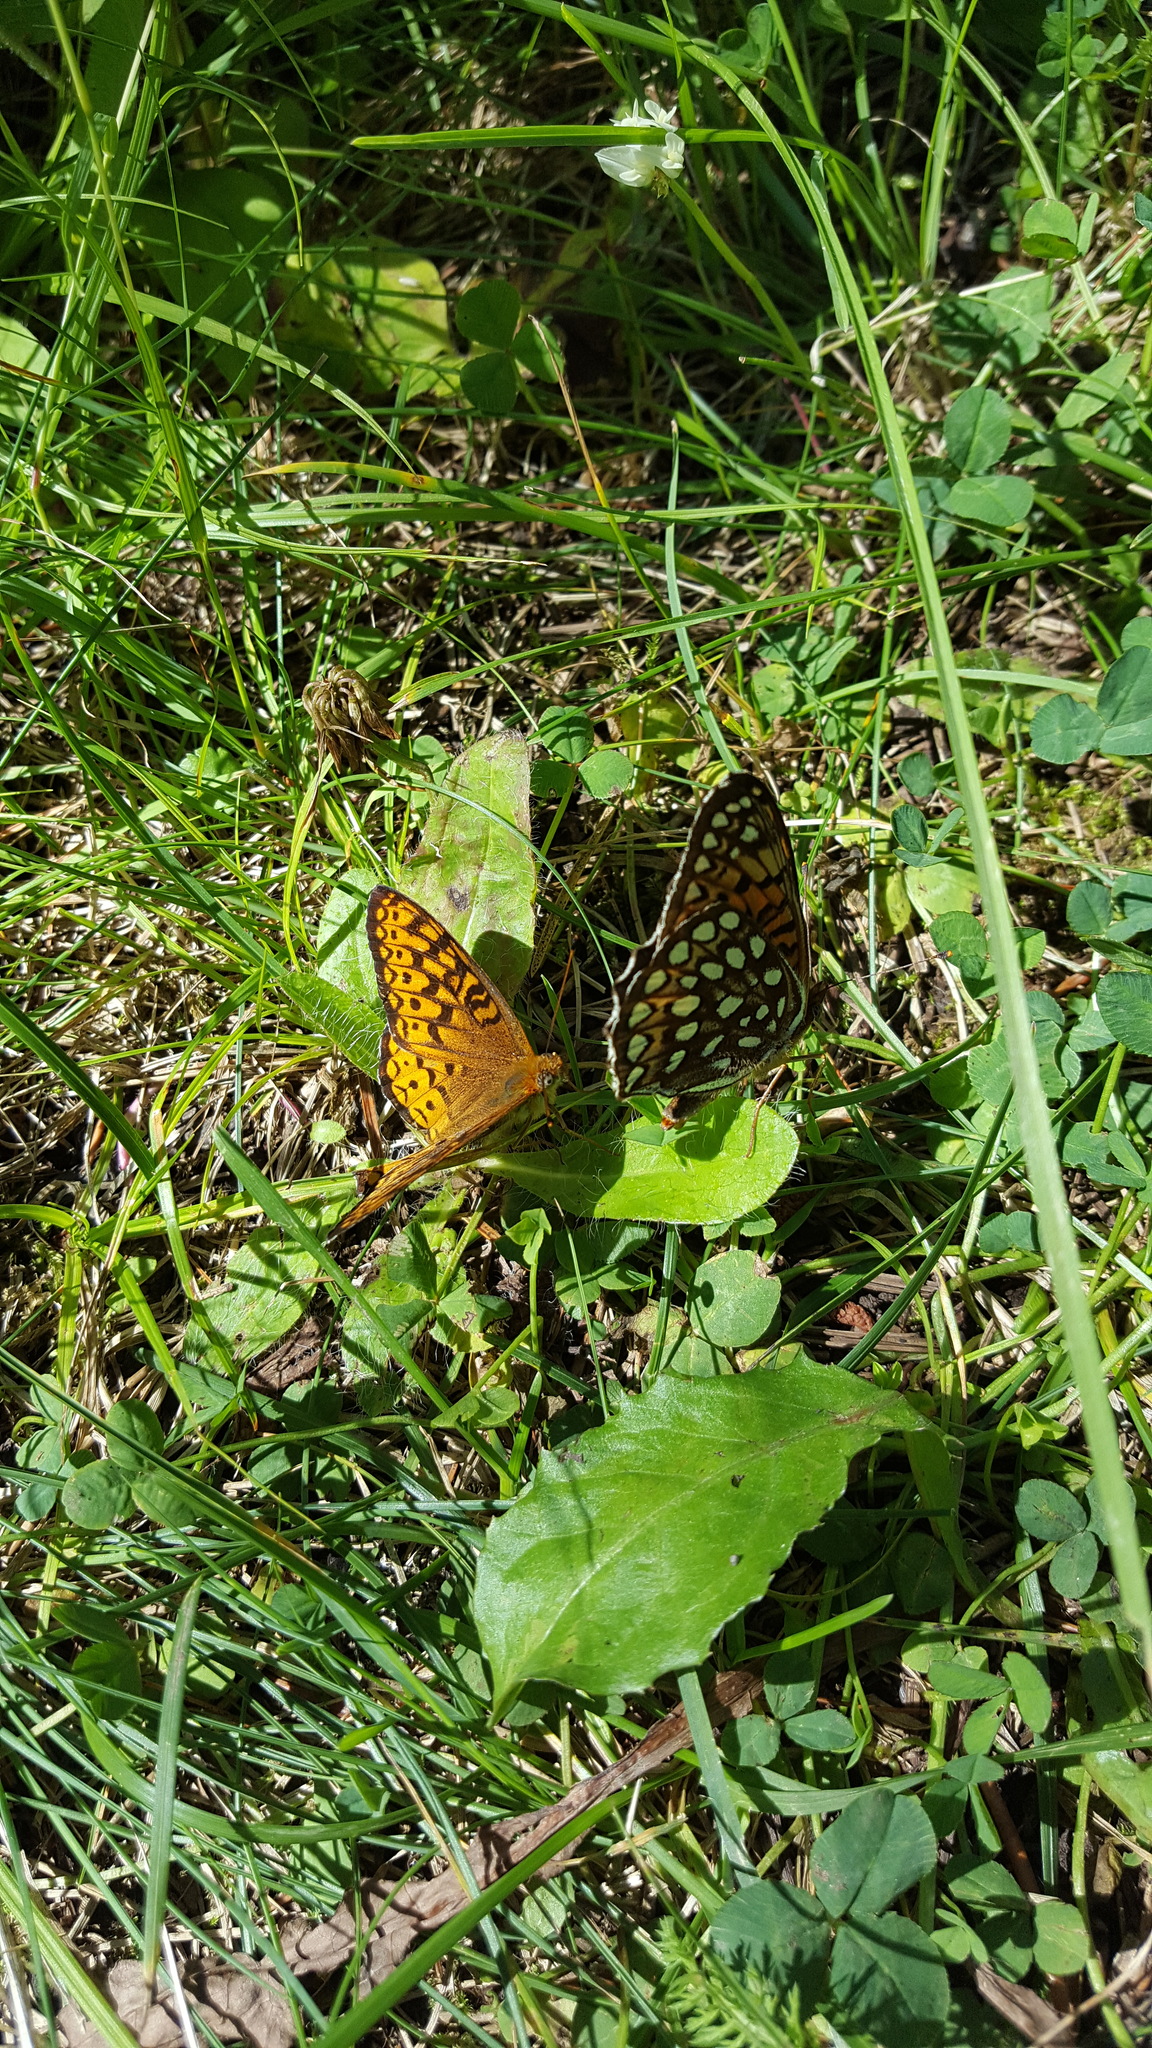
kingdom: Animalia
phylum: Arthropoda
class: Insecta
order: Lepidoptera
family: Nymphalidae
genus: Speyeria
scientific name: Speyeria atlantis
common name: Atlantis fritillary
